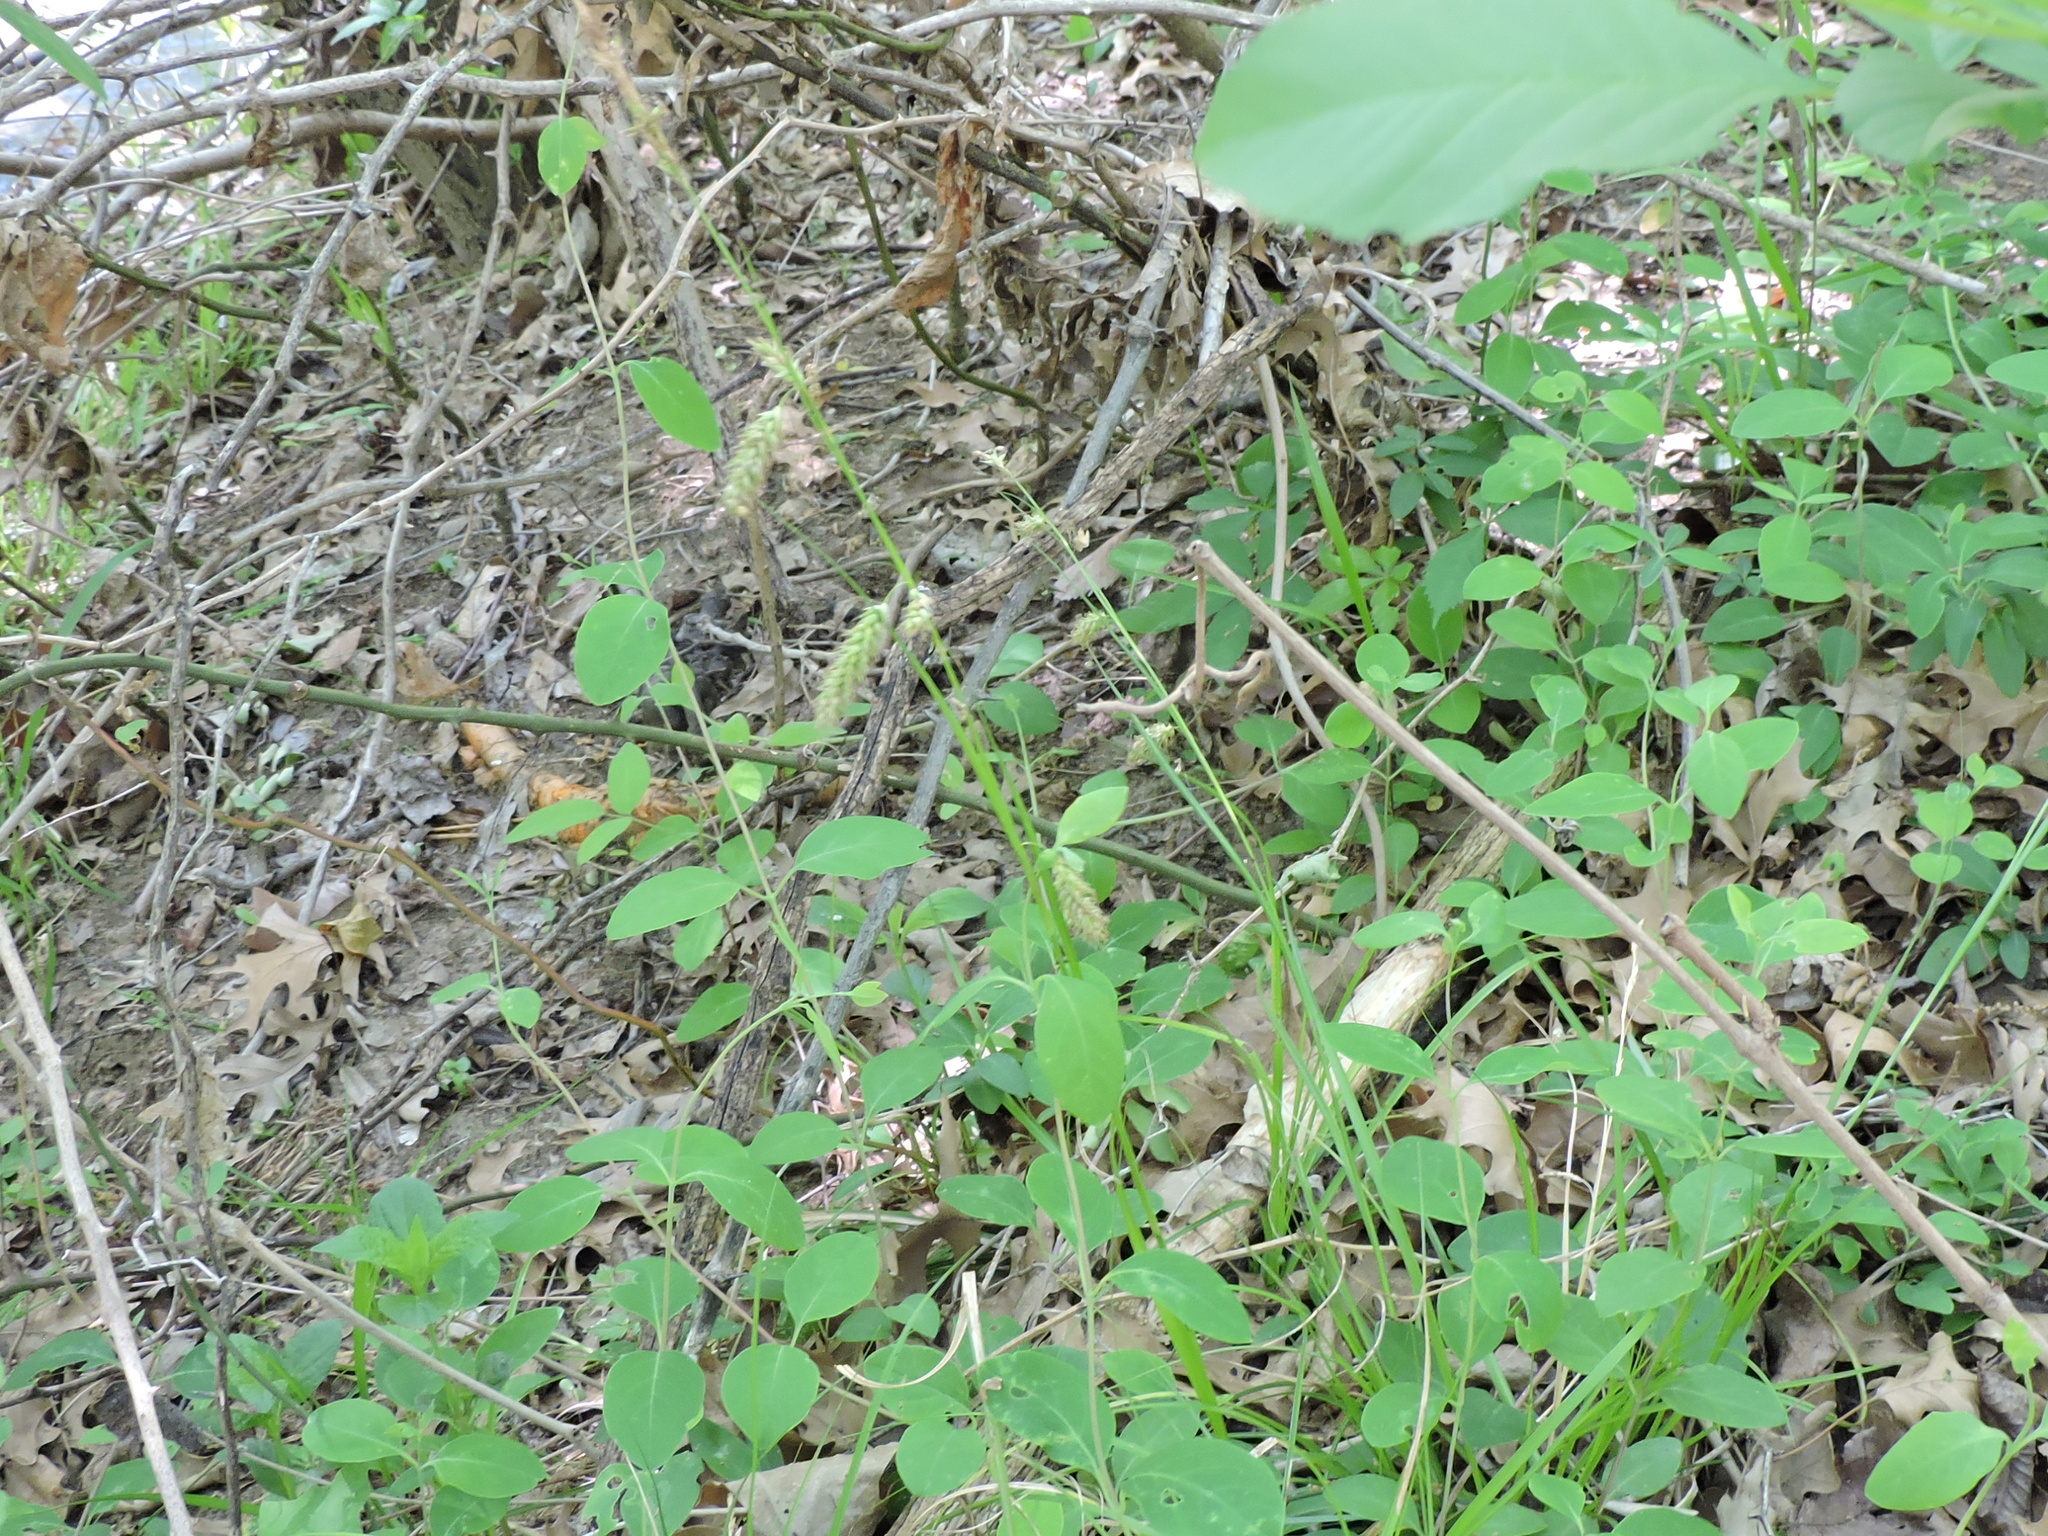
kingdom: Plantae
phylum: Tracheophyta
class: Liliopsida
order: Poales
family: Cyperaceae
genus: Carex
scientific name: Carex cherokeensis
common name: Cherokee sedge
